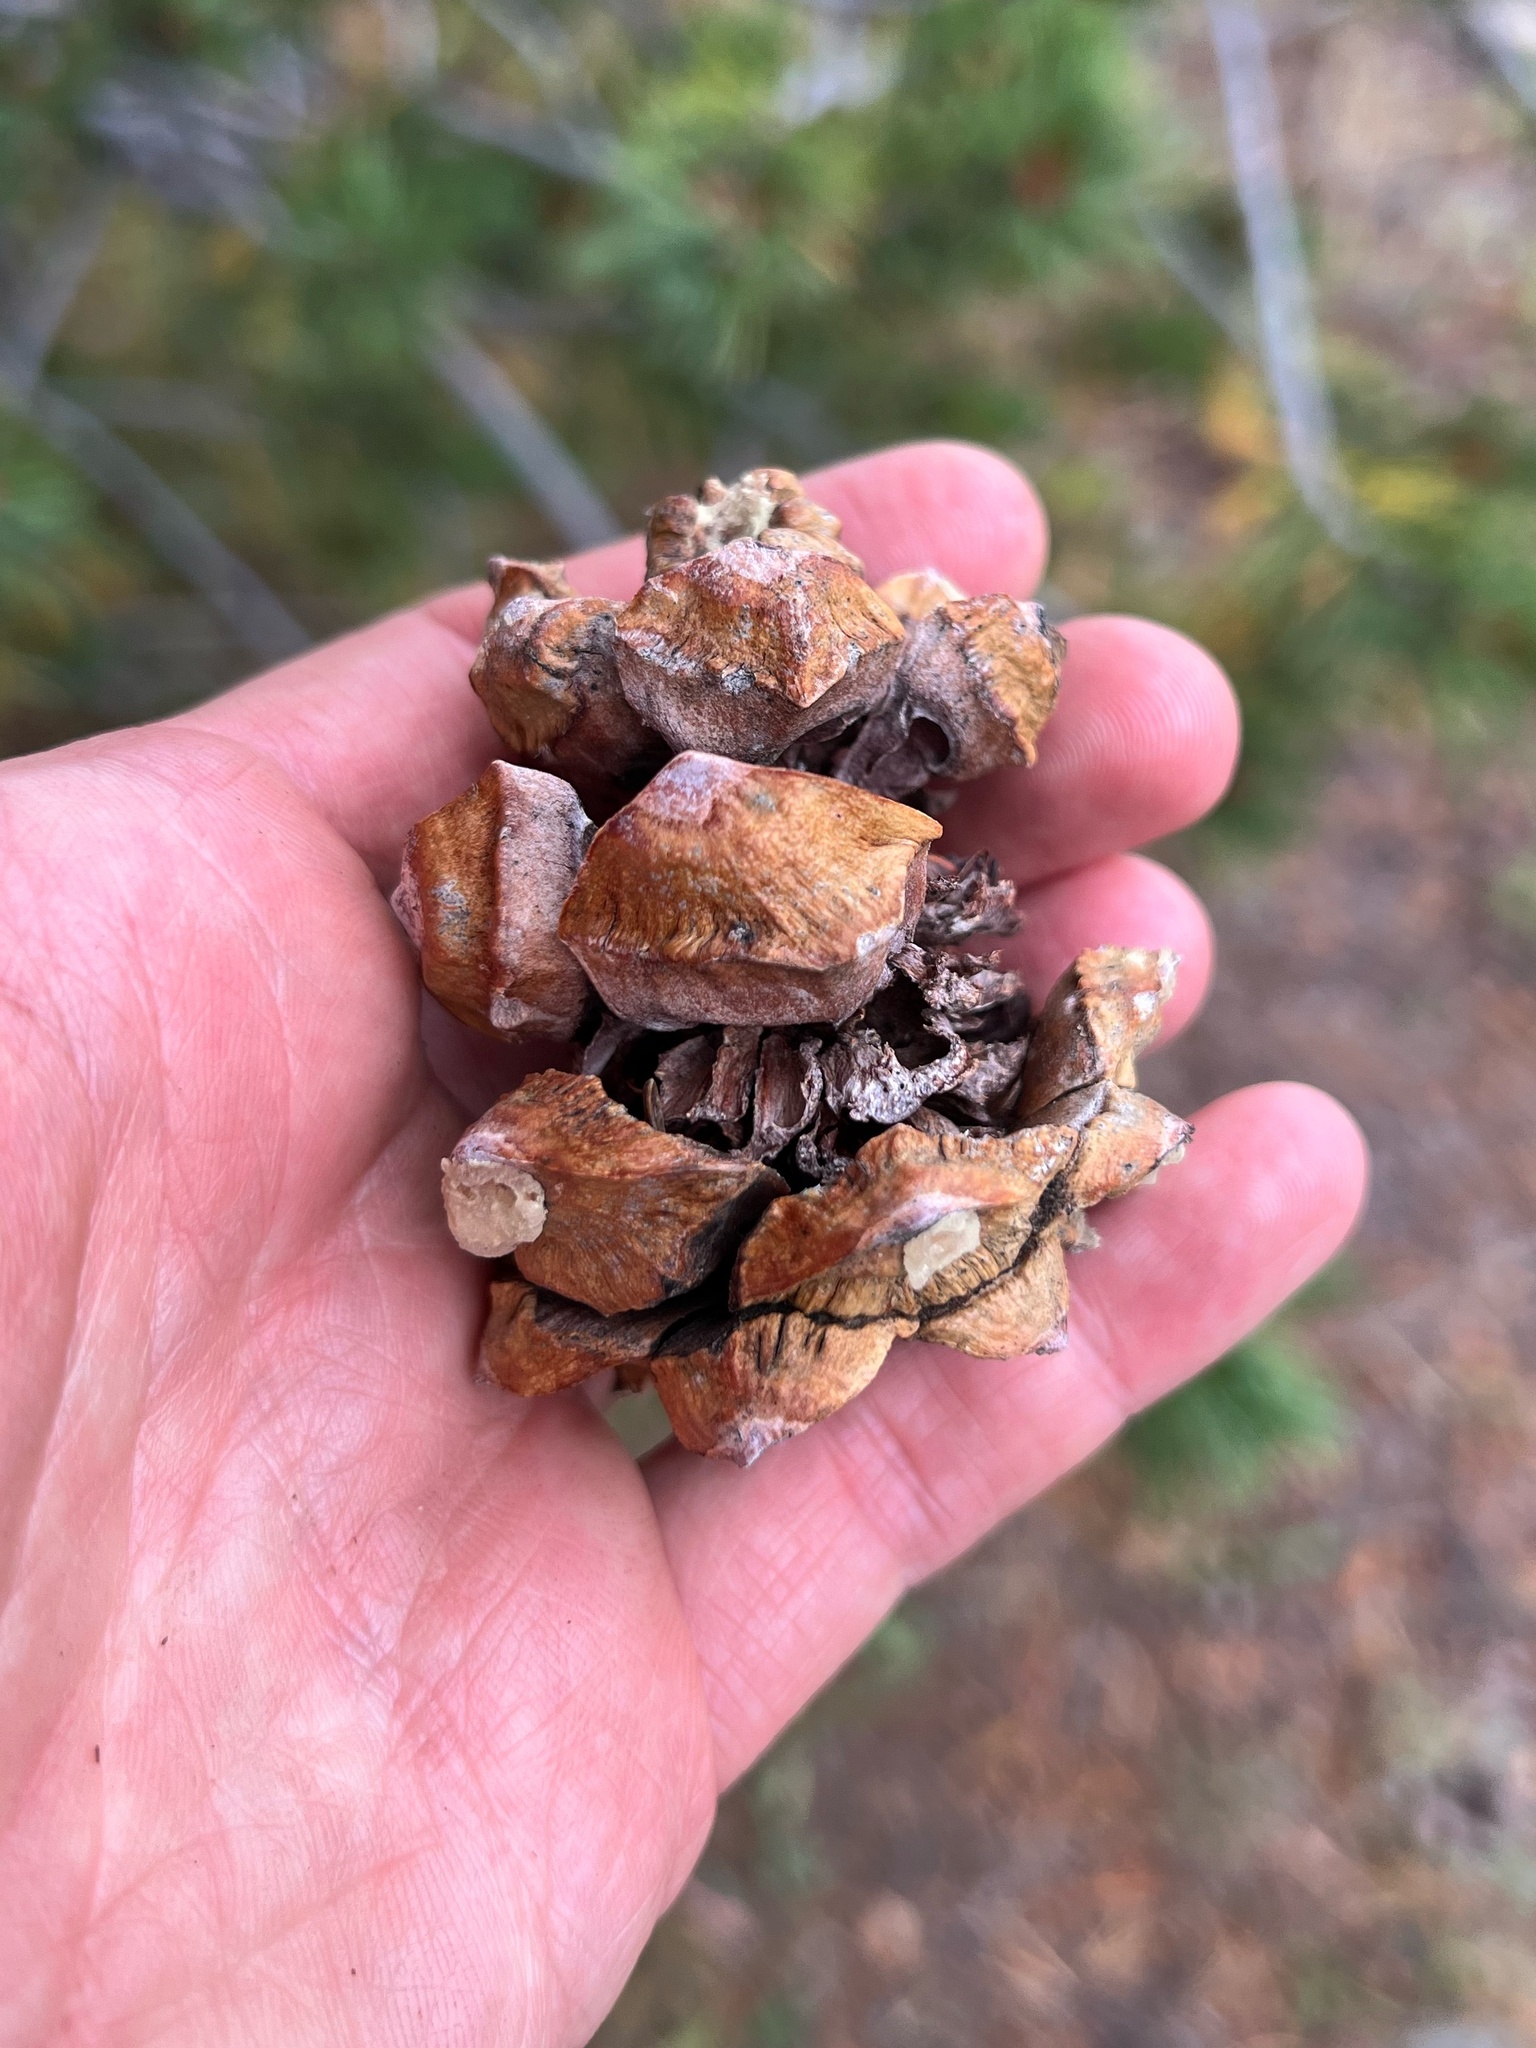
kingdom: Plantae
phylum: Tracheophyta
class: Pinopsida
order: Pinales
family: Pinaceae
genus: Pinus
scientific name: Pinus albicaulis
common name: Whitebark pine
